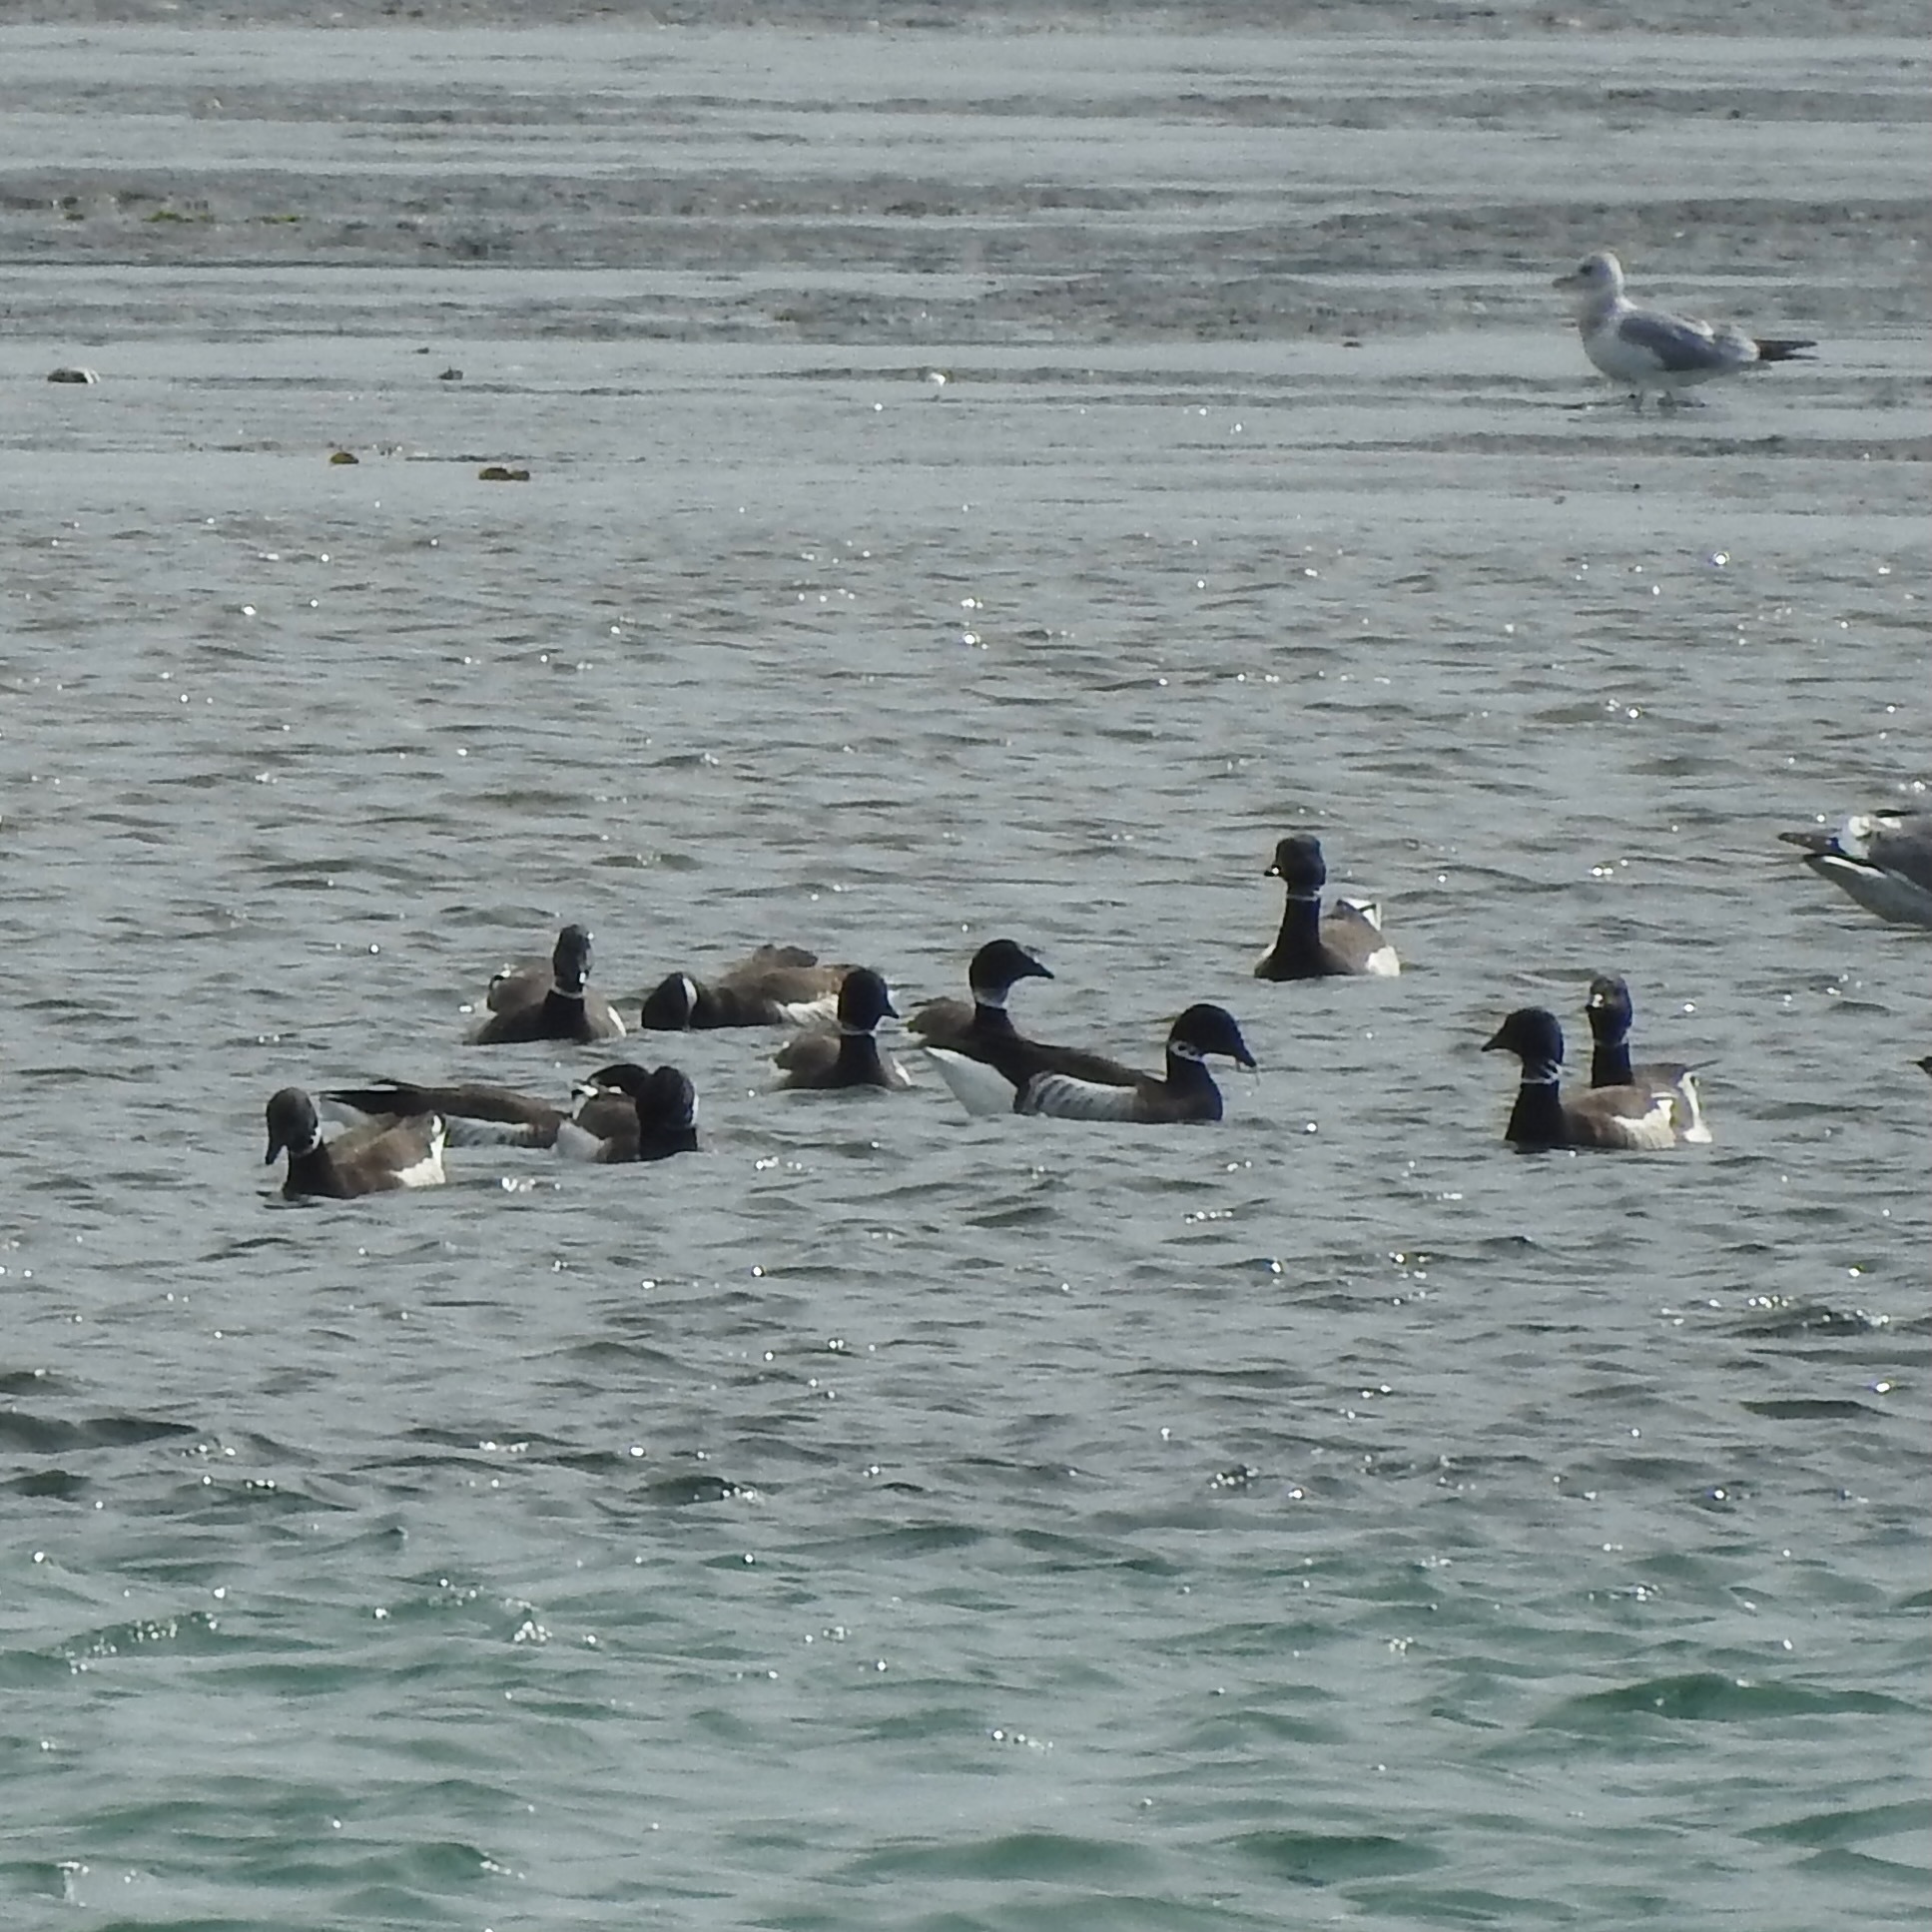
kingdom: Animalia
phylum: Chordata
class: Aves
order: Anseriformes
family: Anatidae
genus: Branta
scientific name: Branta bernicla
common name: Brant goose
